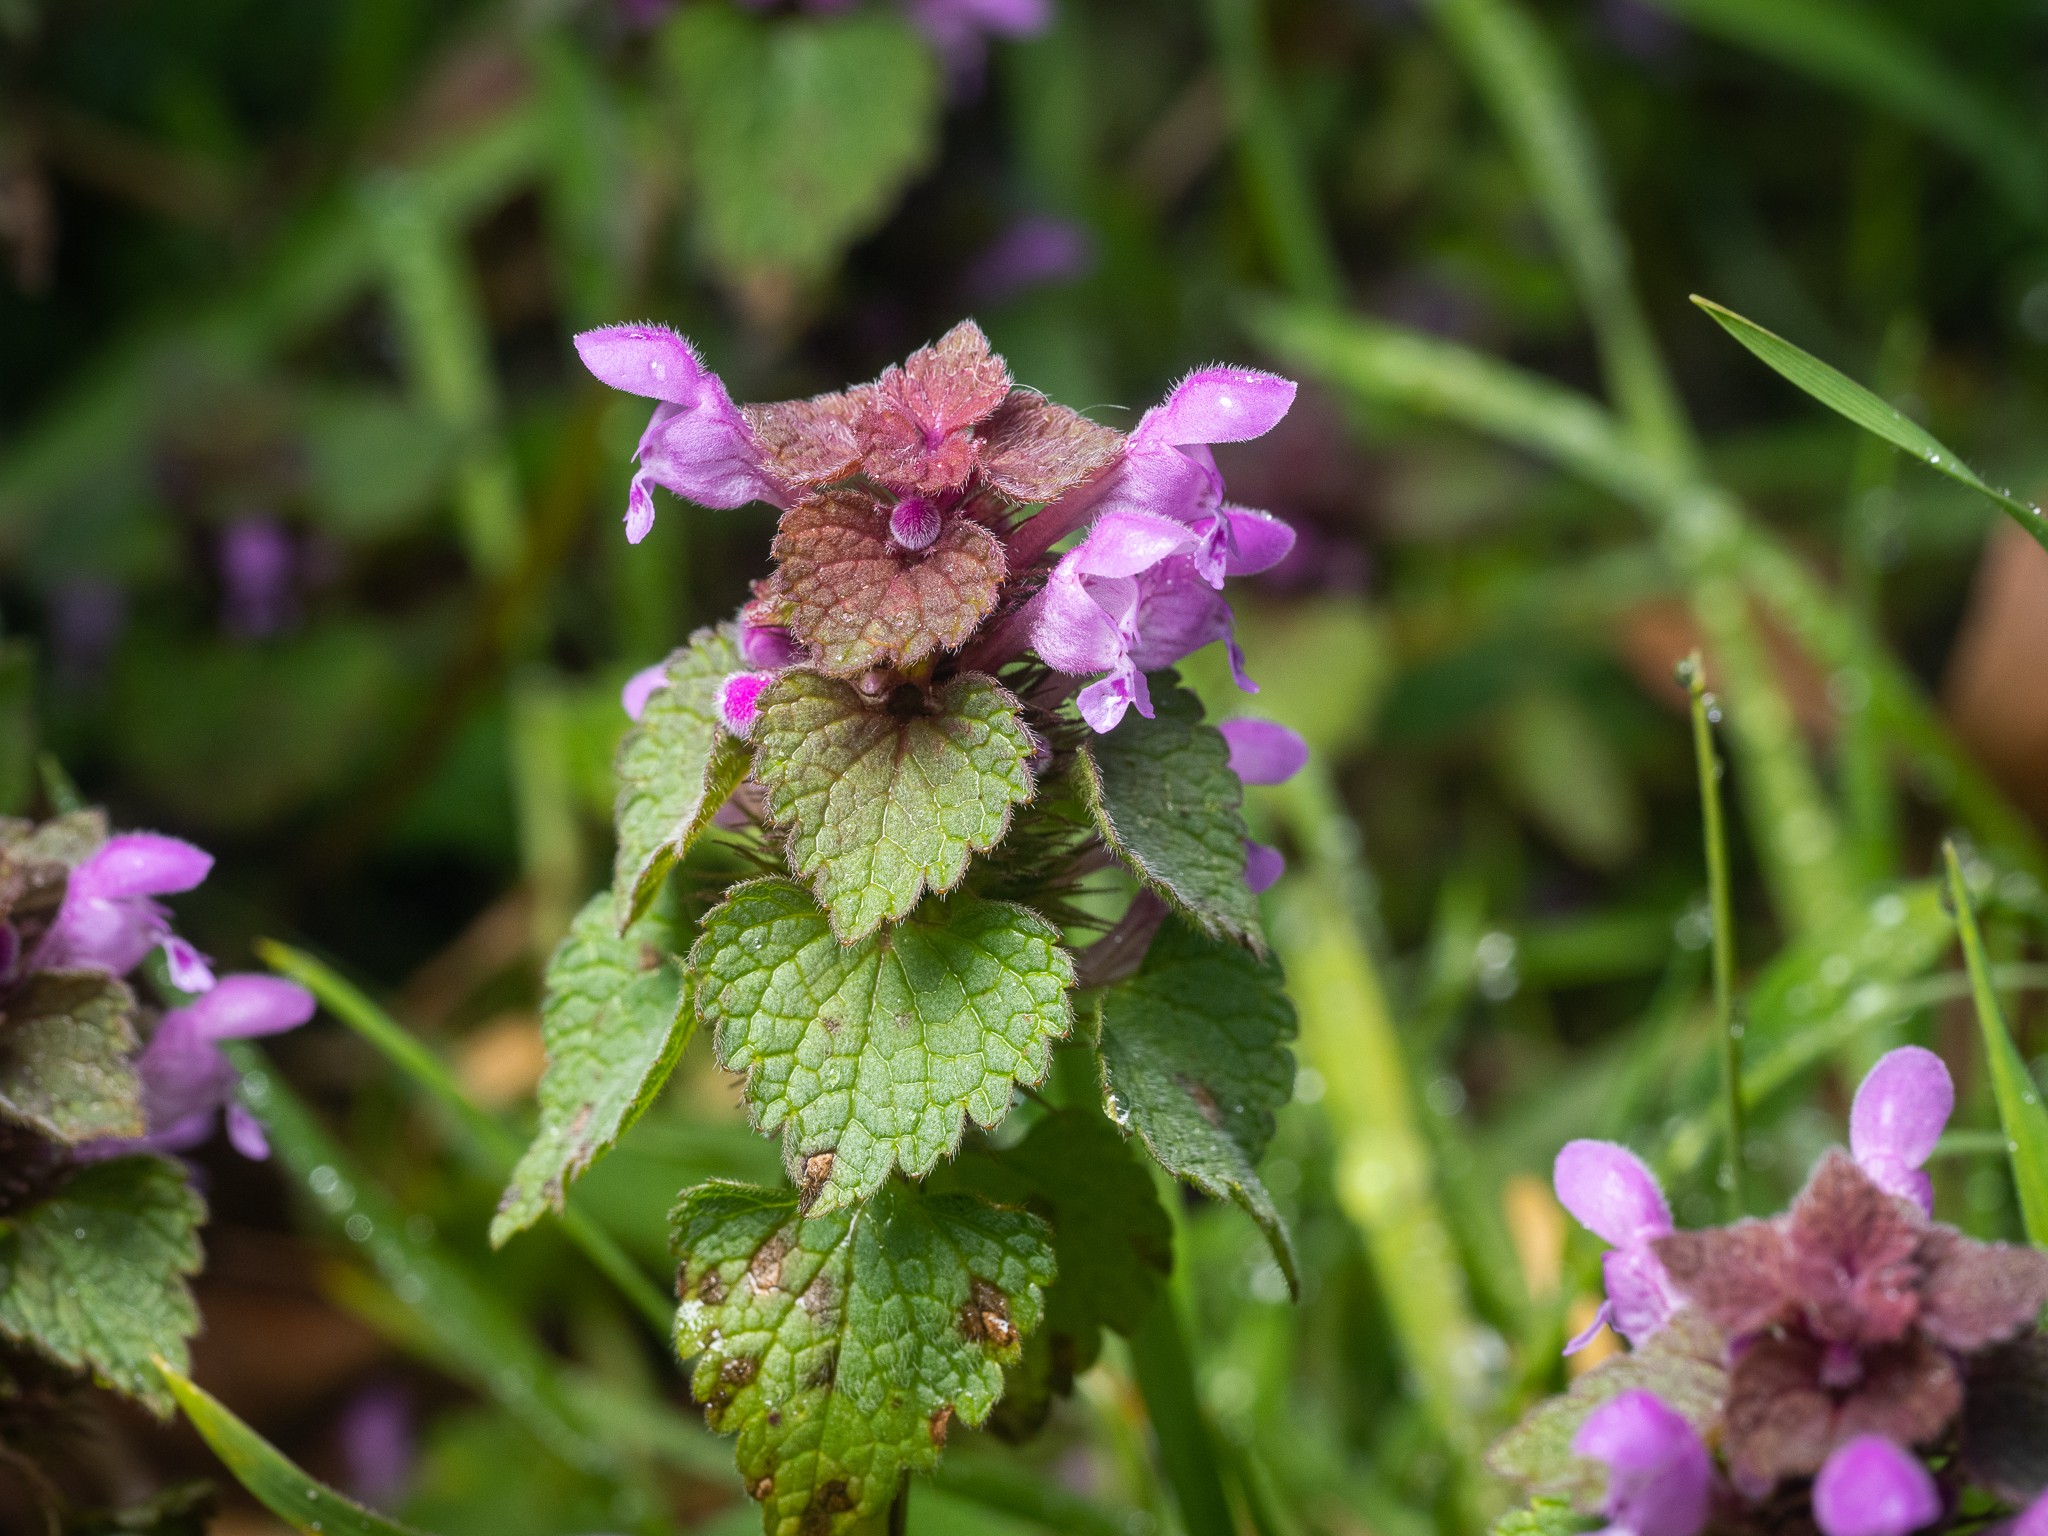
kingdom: Plantae
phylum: Tracheophyta
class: Magnoliopsida
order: Lamiales
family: Lamiaceae
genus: Lamium
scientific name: Lamium purpureum
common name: Red dead-nettle
